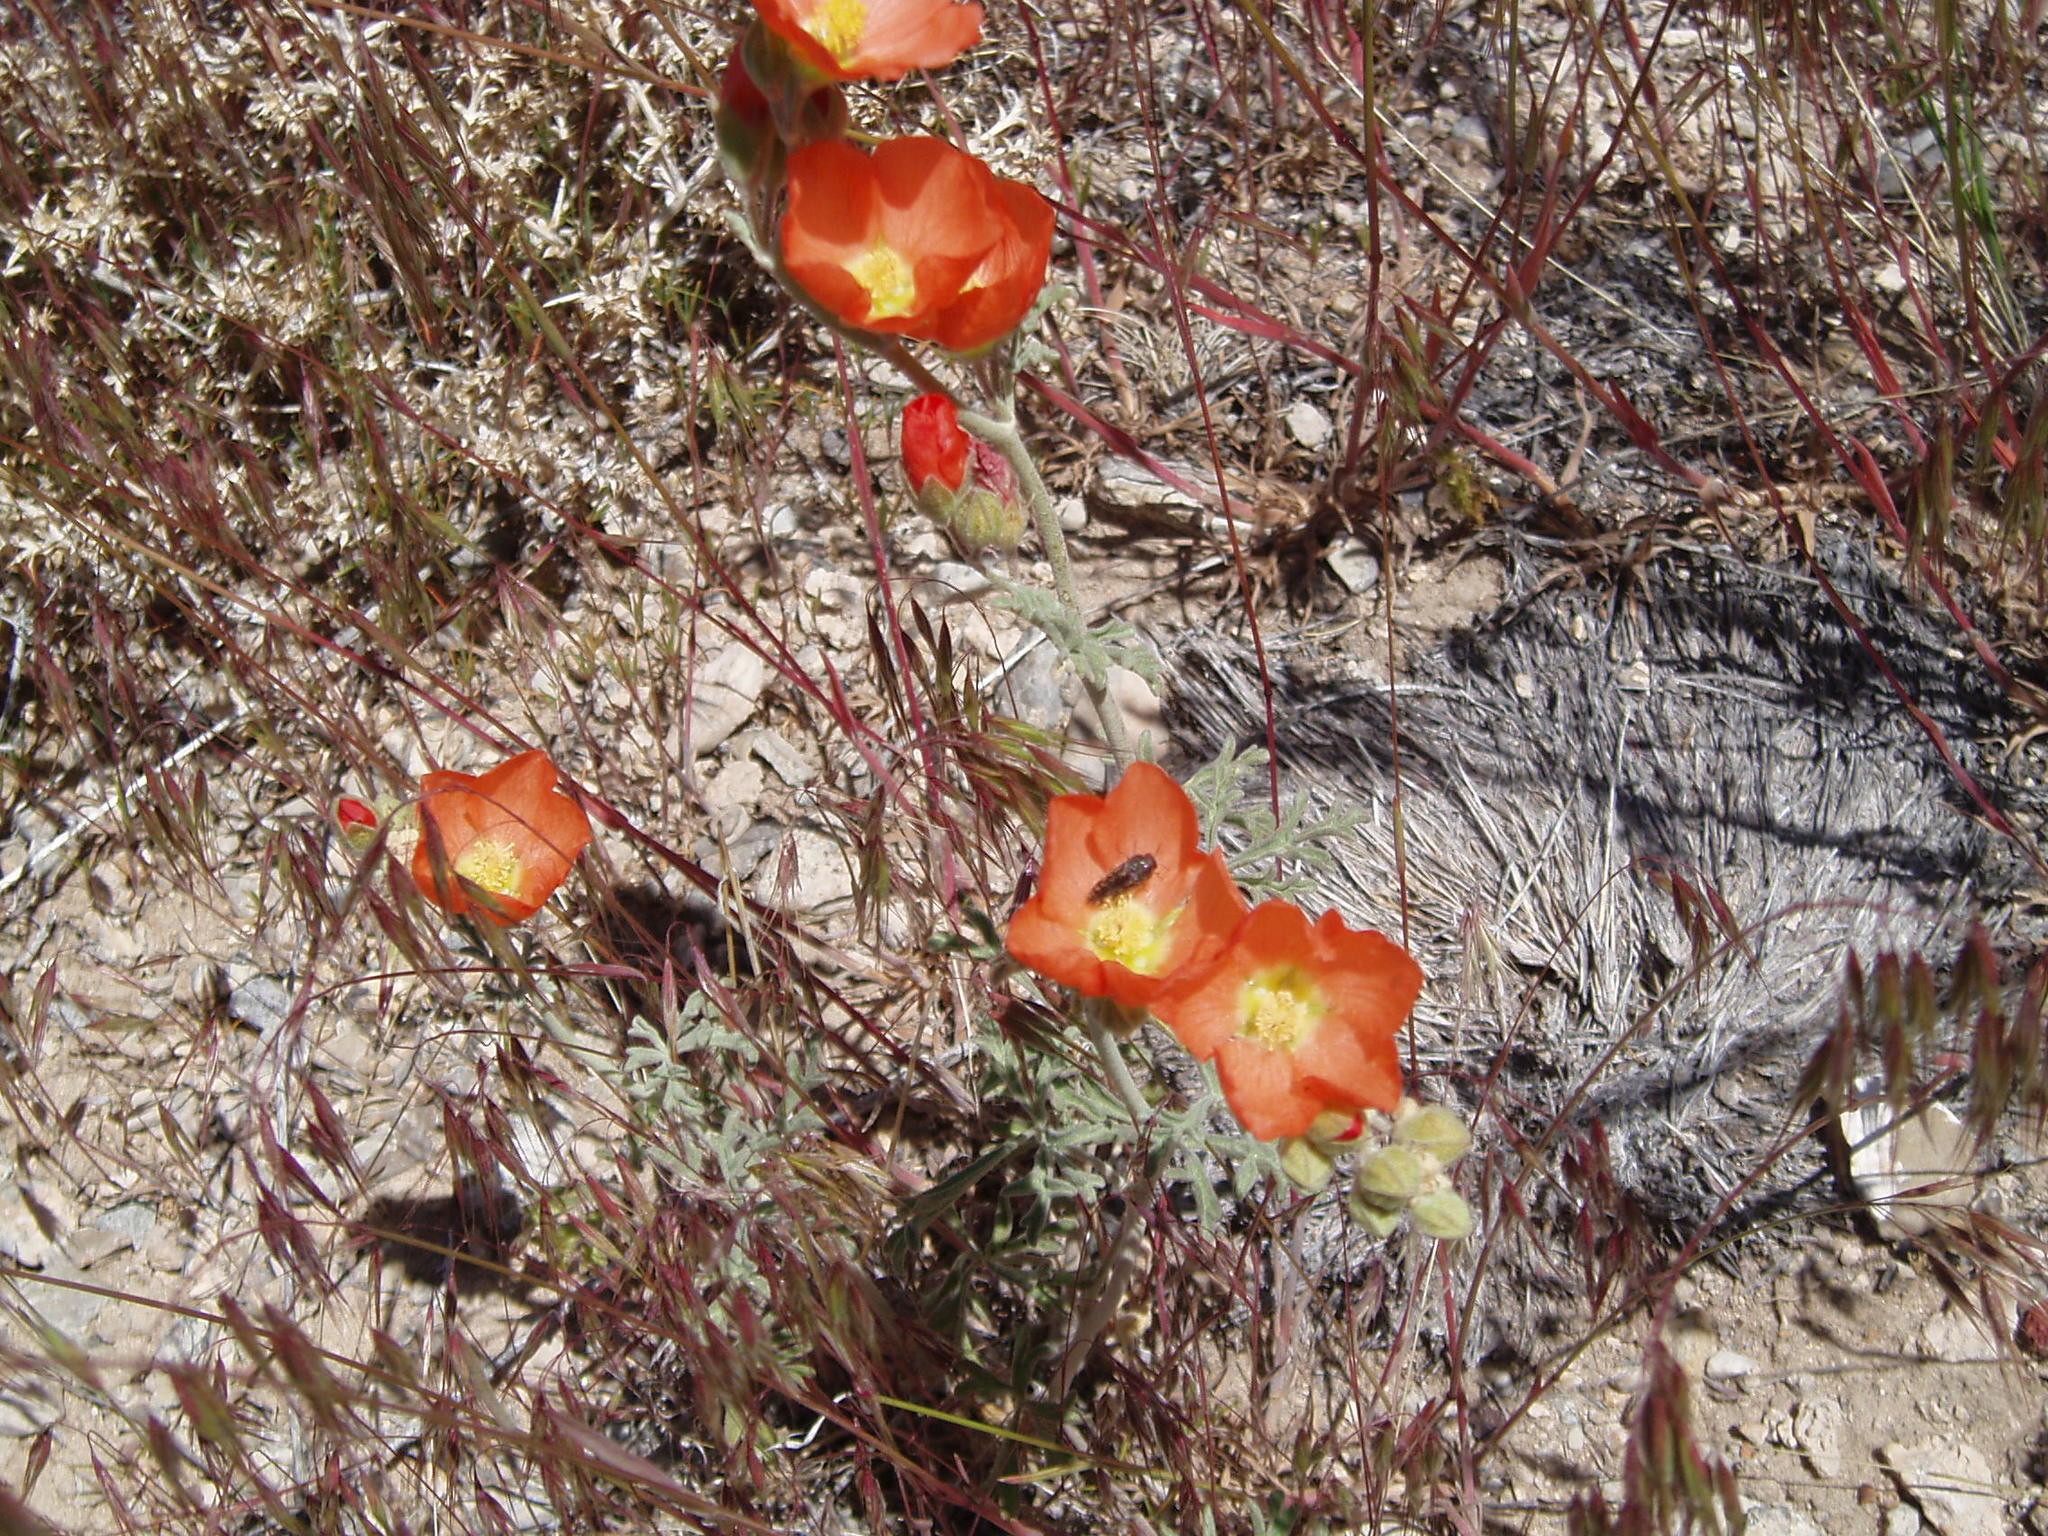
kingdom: Plantae
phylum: Tracheophyta
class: Magnoliopsida
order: Malvales
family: Malvaceae
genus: Sphaeralcea
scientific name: Sphaeralcea grossulariifolia
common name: Current-leaf globe-mallow
